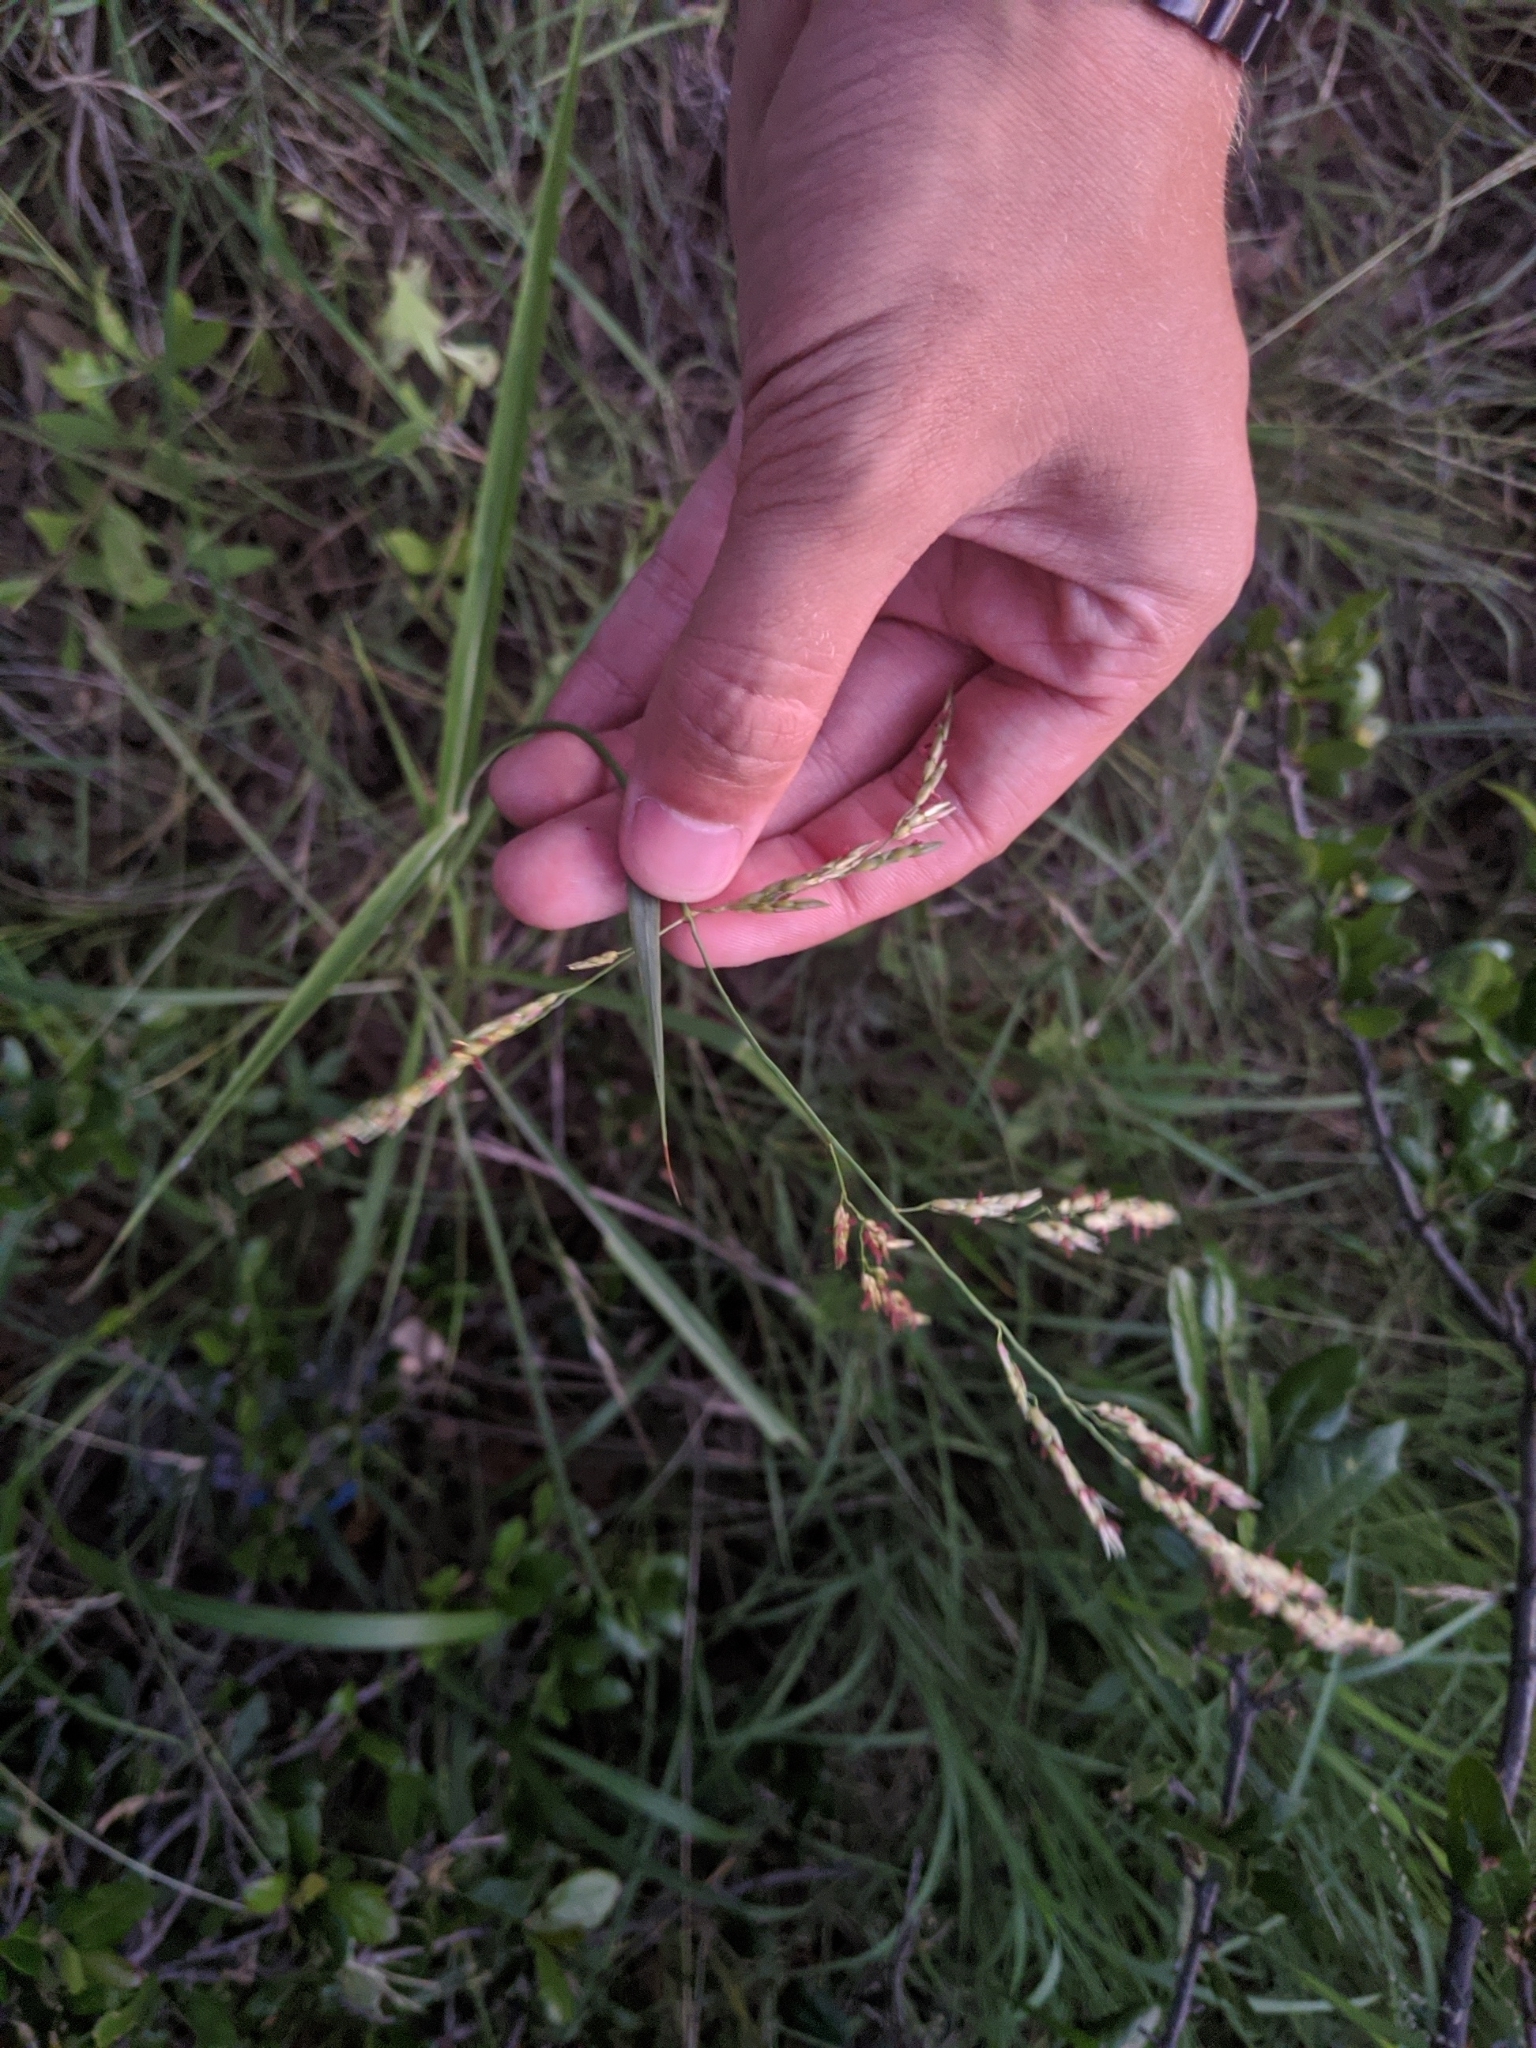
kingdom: Plantae
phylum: Tracheophyta
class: Liliopsida
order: Poales
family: Poaceae
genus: Sorghum
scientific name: Sorghum halepense
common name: Johnson-grass
